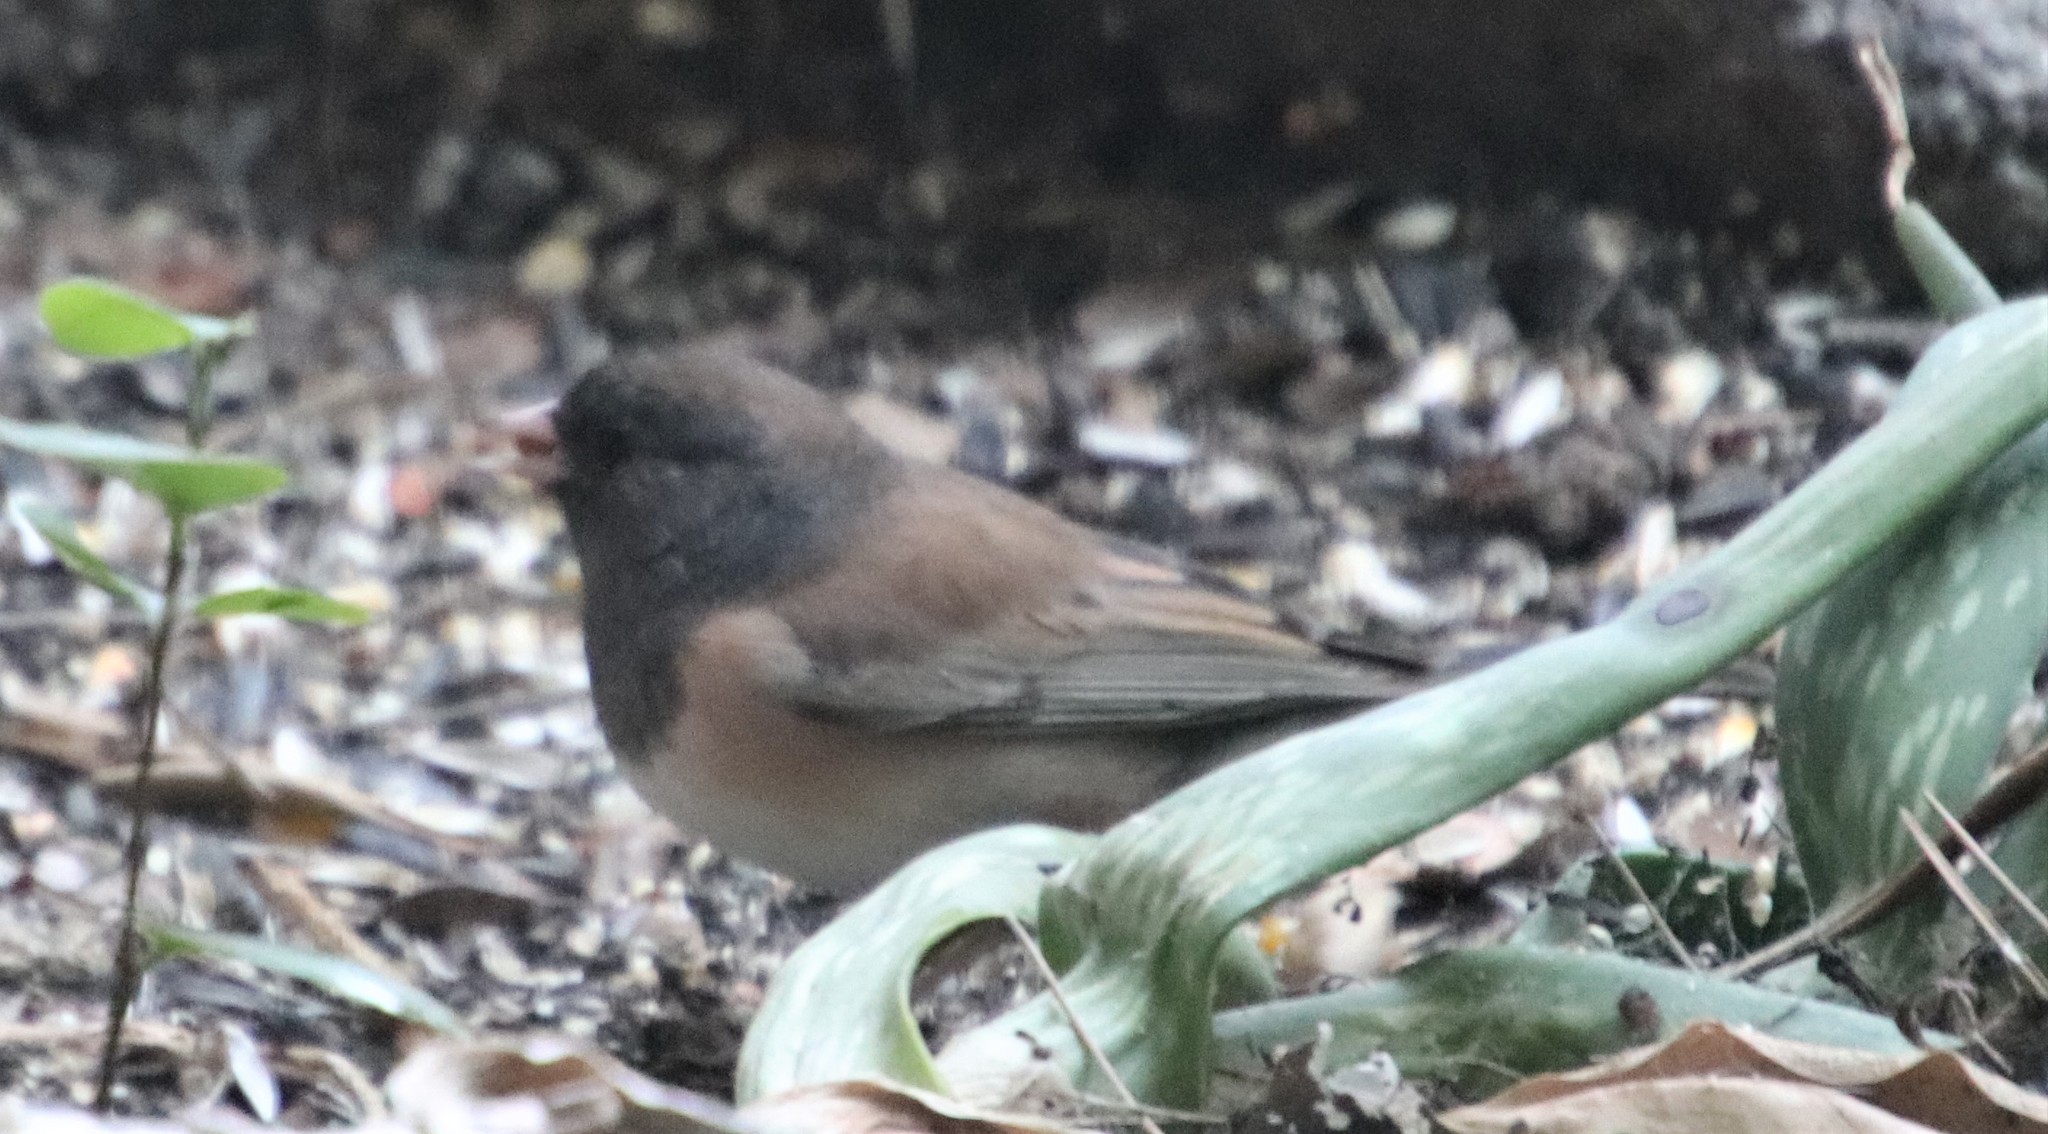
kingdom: Animalia
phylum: Chordata
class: Aves
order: Passeriformes
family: Passerellidae
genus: Junco
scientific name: Junco hyemalis
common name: Dark-eyed junco
